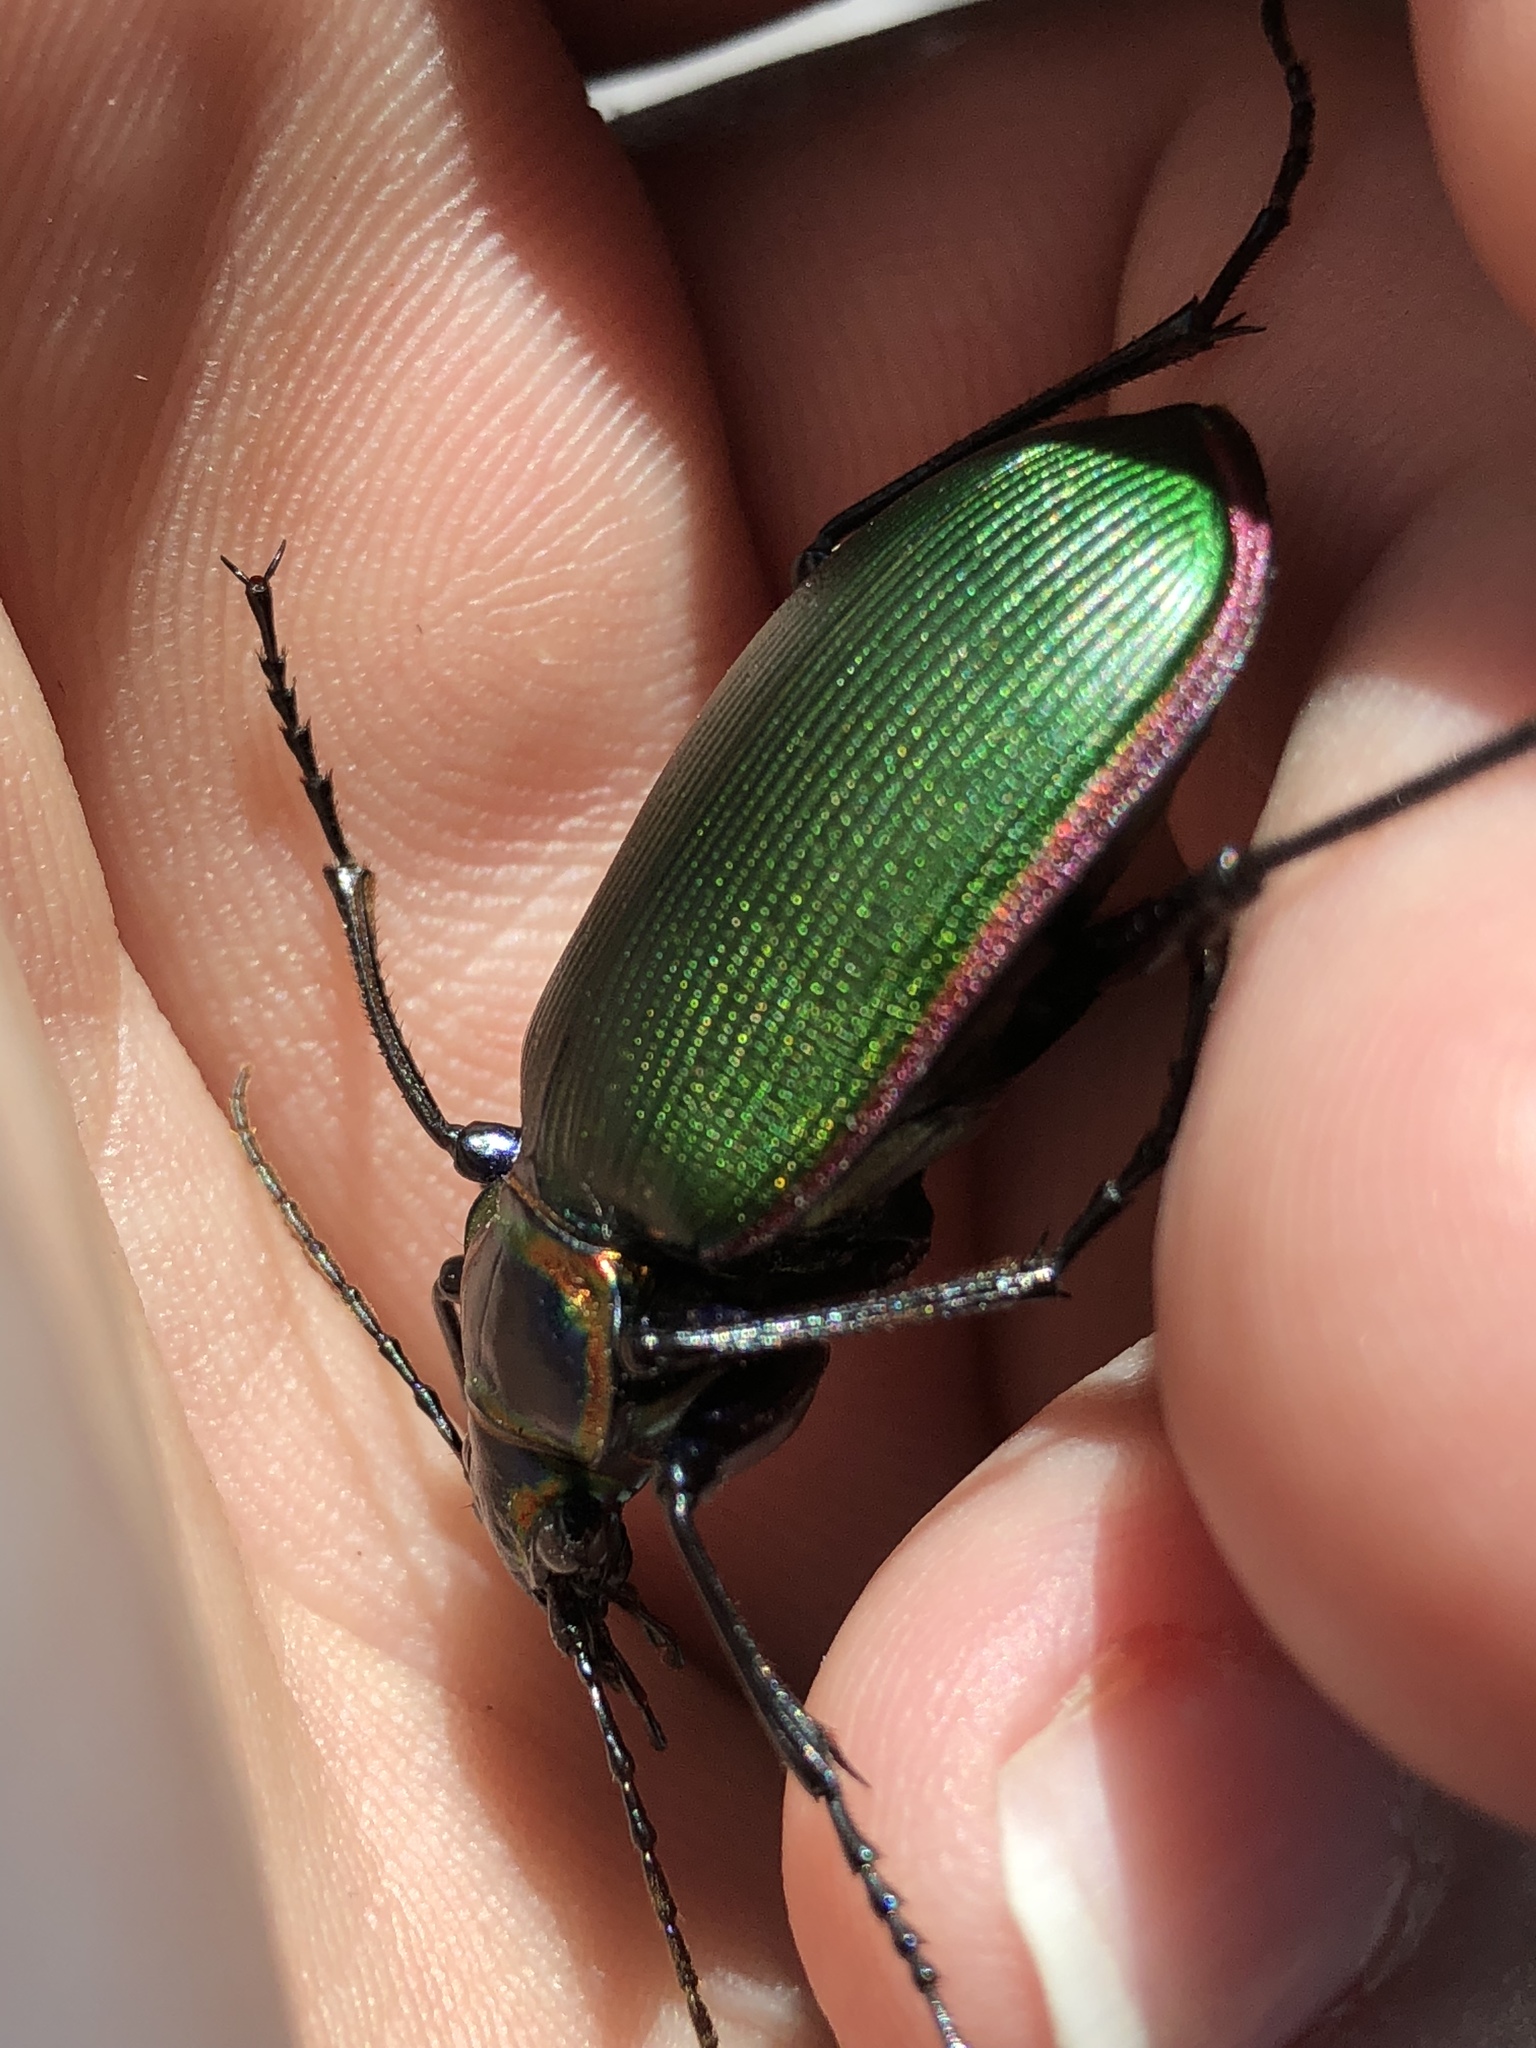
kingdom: Animalia
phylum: Arthropoda
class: Insecta
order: Coleoptera
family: Carabidae
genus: Calosoma
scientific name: Calosoma scrutator
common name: Fiery searcher beetle
